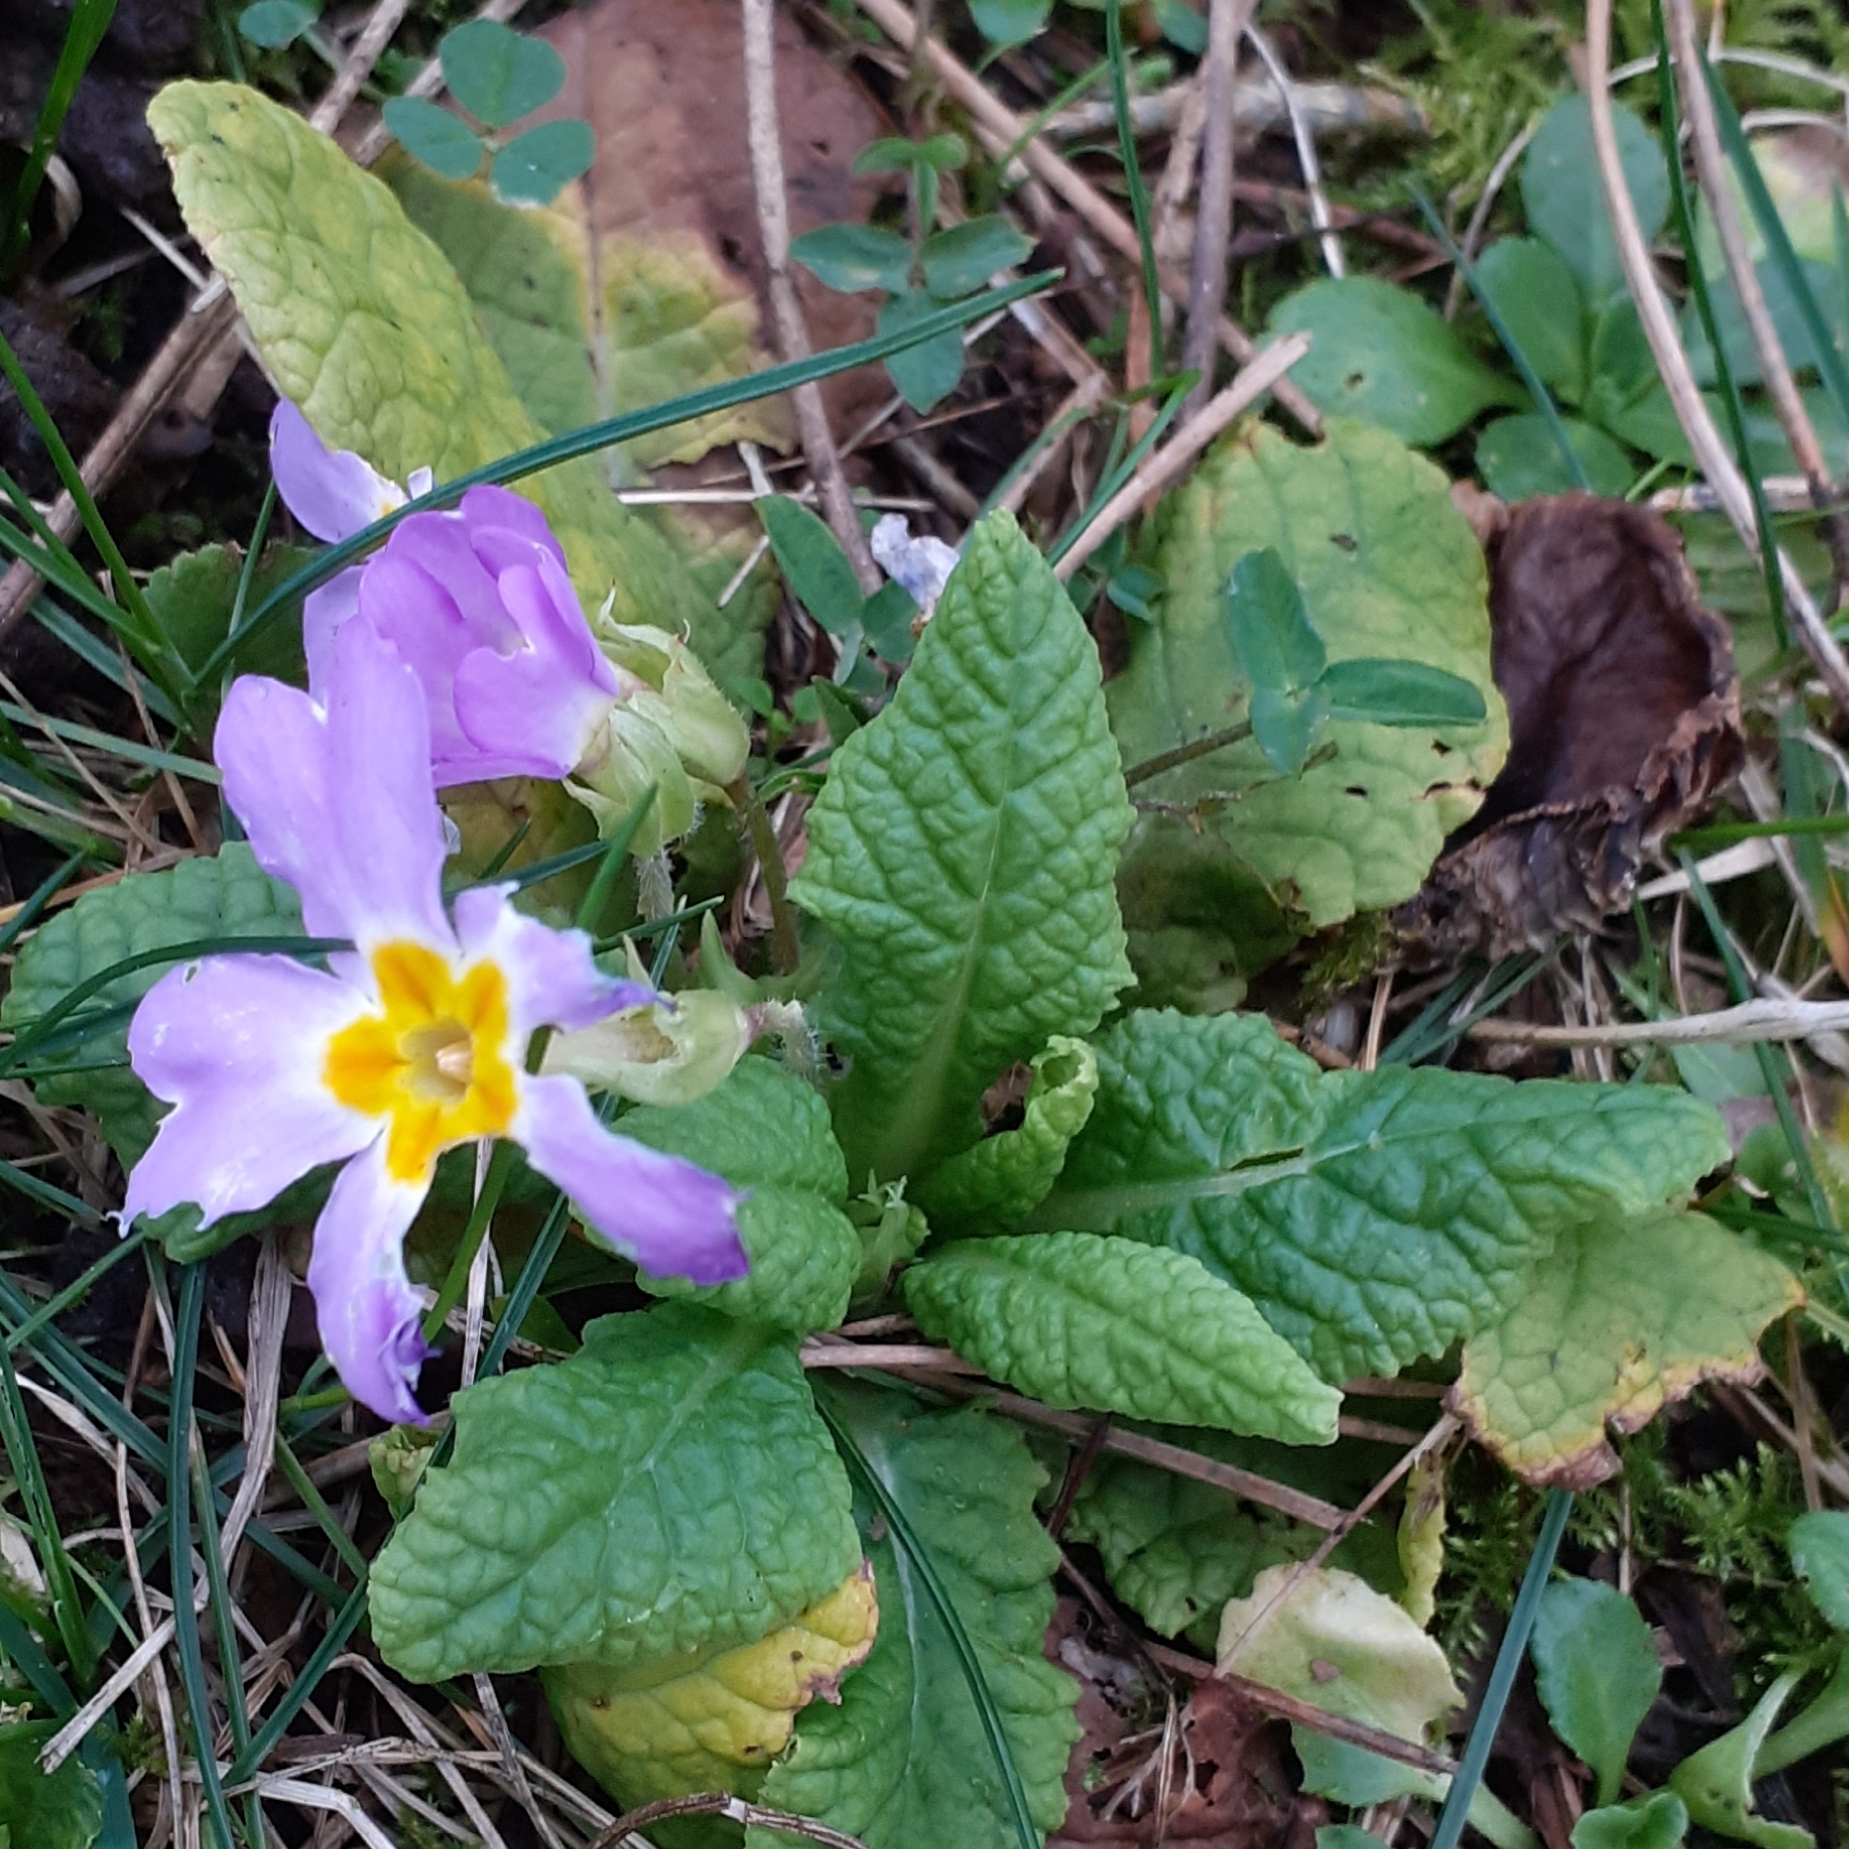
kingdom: Plantae
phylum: Tracheophyta
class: Magnoliopsida
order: Ericales
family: Primulaceae
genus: Primula
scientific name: Primula vulgaris
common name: Primrose
